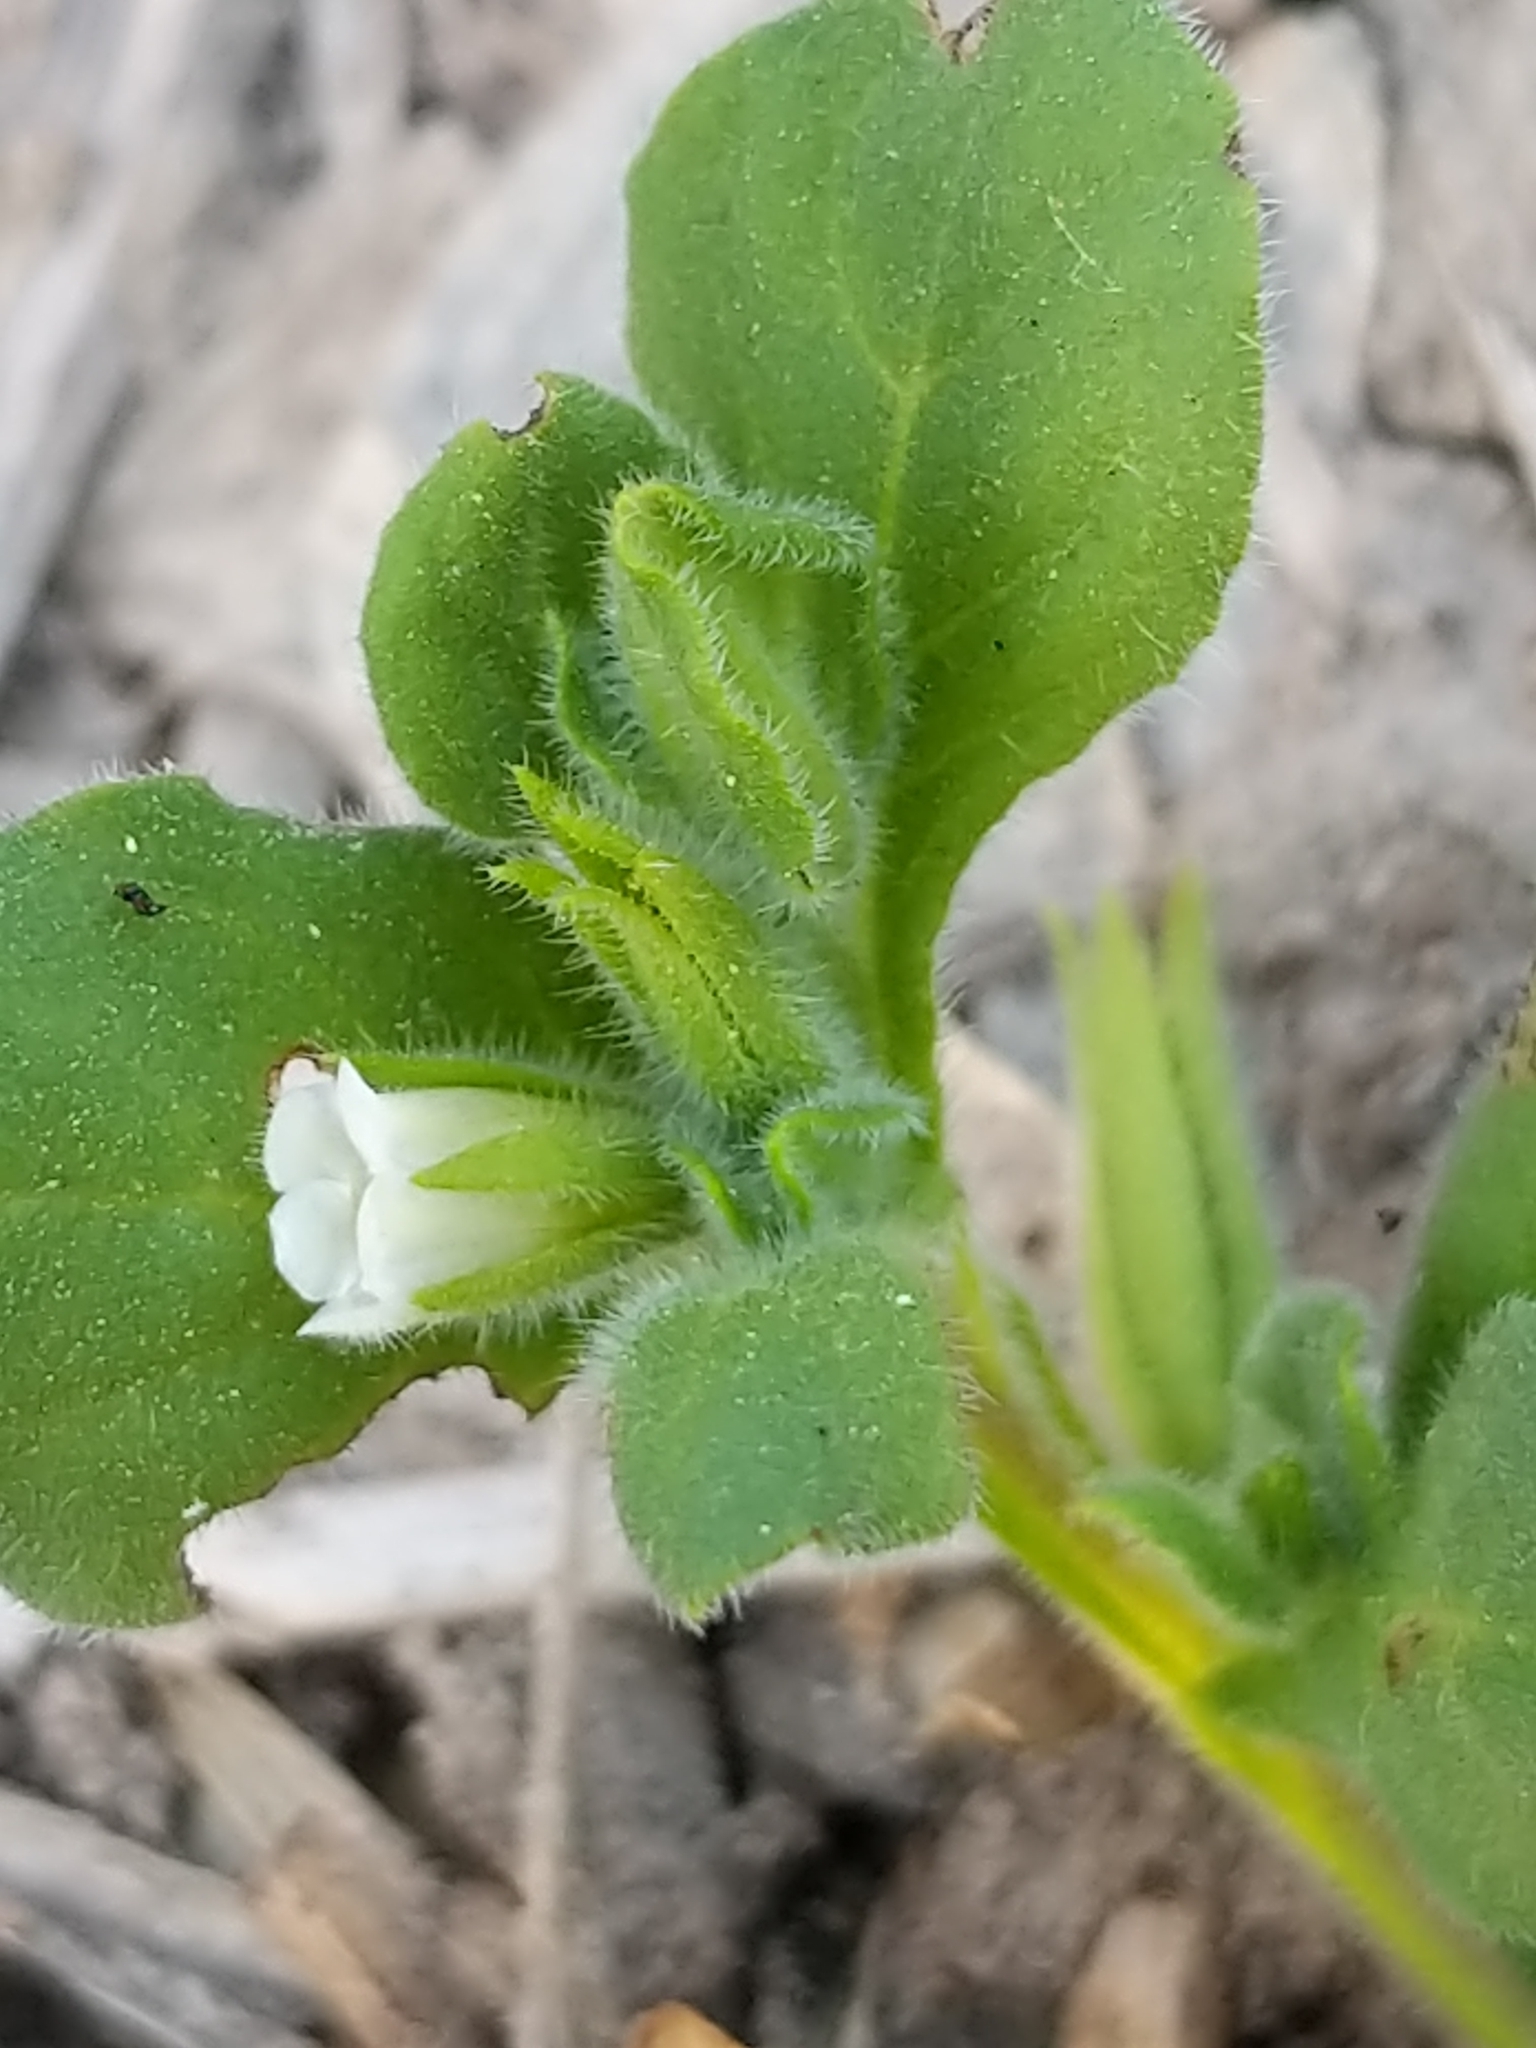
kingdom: Plantae
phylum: Tracheophyta
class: Magnoliopsida
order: Boraginales
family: Namaceae
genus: Nama
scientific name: Nama jamaicensis
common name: Jamaicanweed
